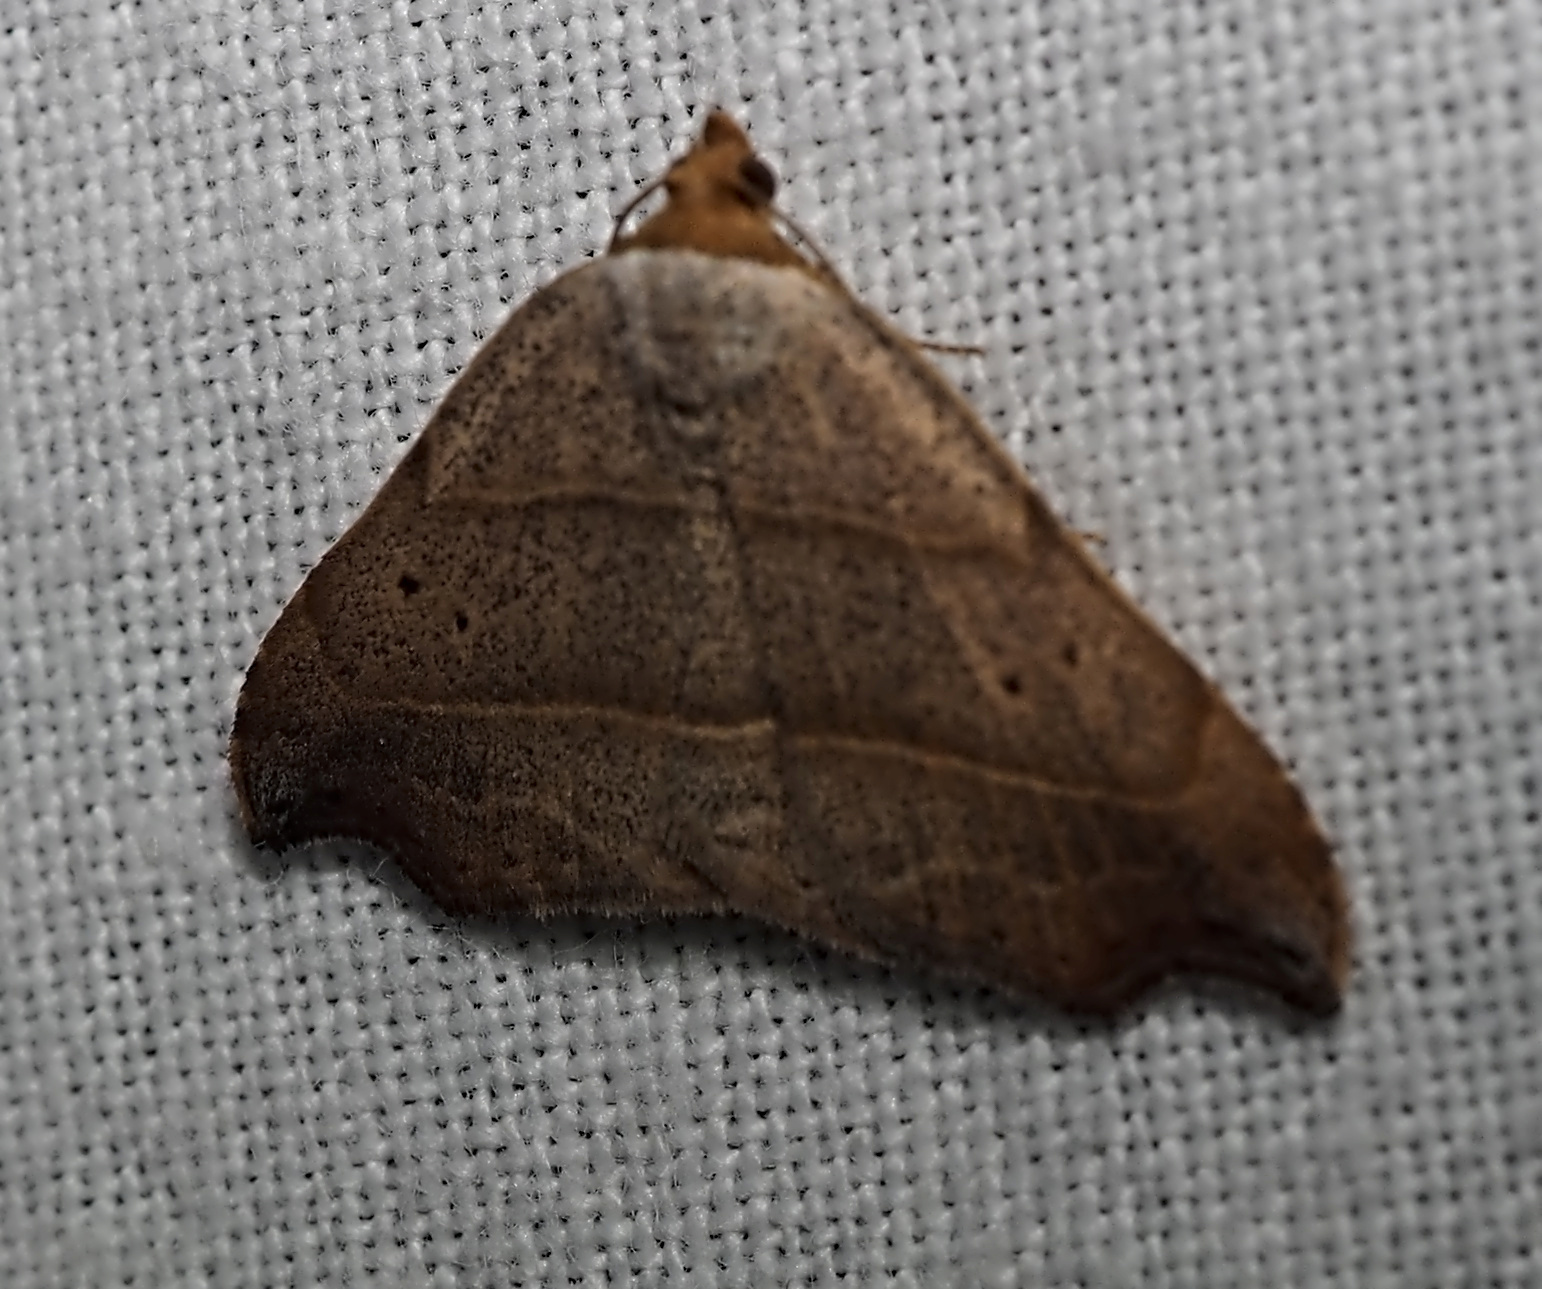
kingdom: Animalia
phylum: Arthropoda
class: Insecta
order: Lepidoptera
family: Erebidae
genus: Laspeyria
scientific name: Laspeyria flexula
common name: Beautiful hook-tip
